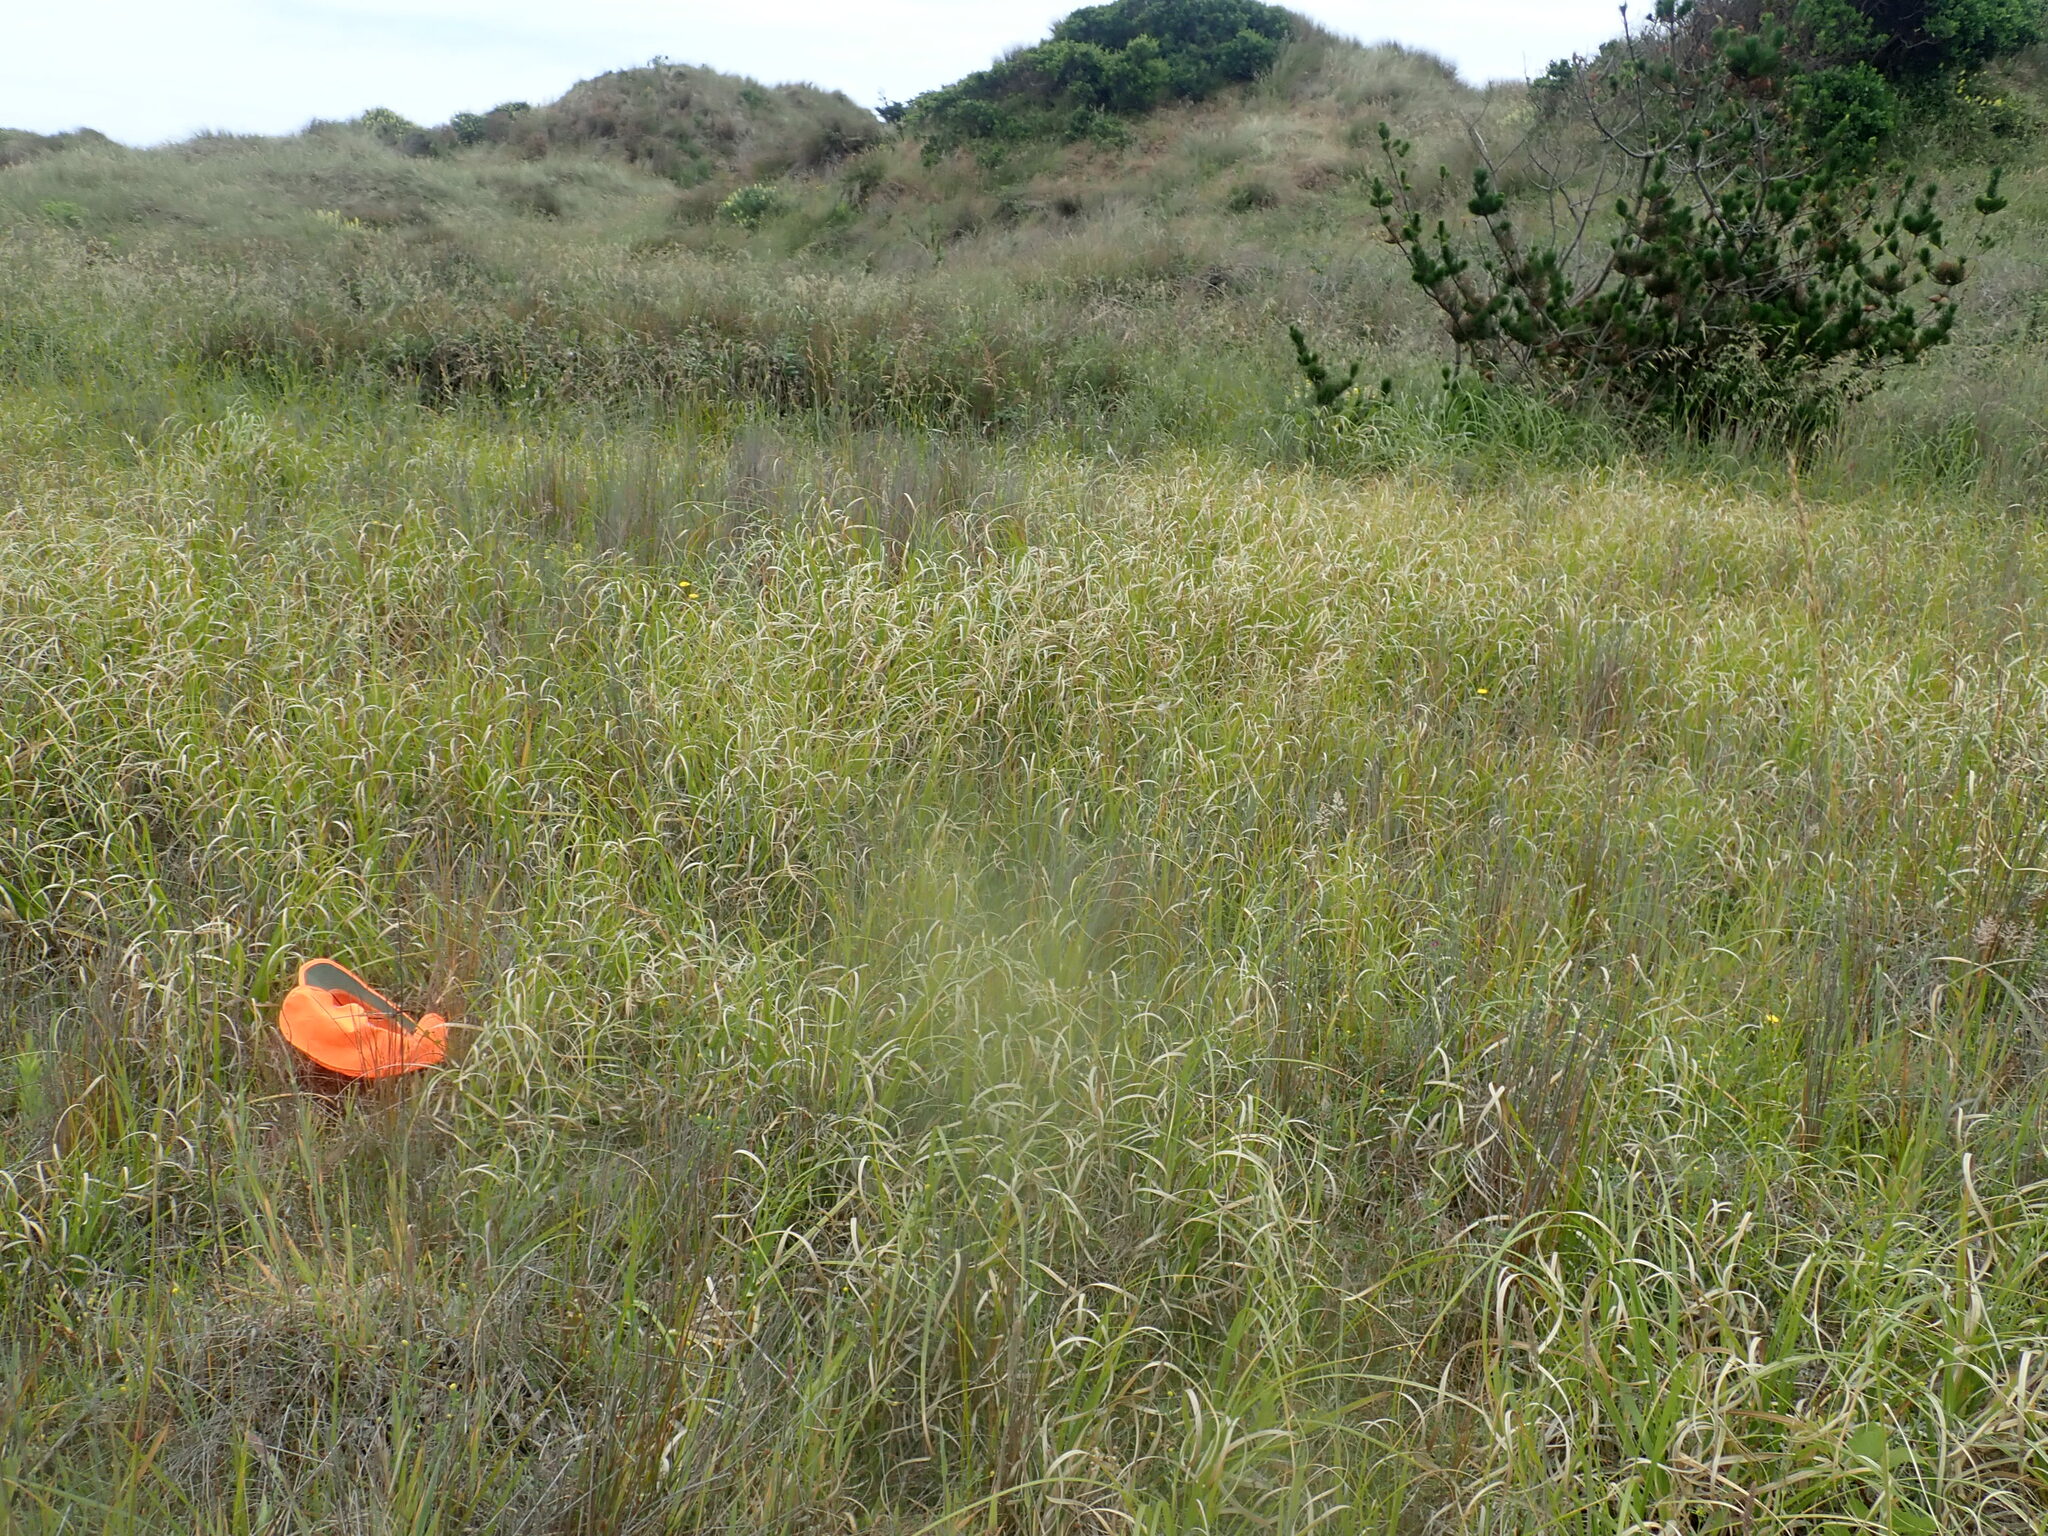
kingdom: Plantae
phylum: Bryophyta
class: Bryopsida
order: Ptychomniales
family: Ptychomniaceae
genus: Ptychomnion
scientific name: Ptychomnion aciculare
